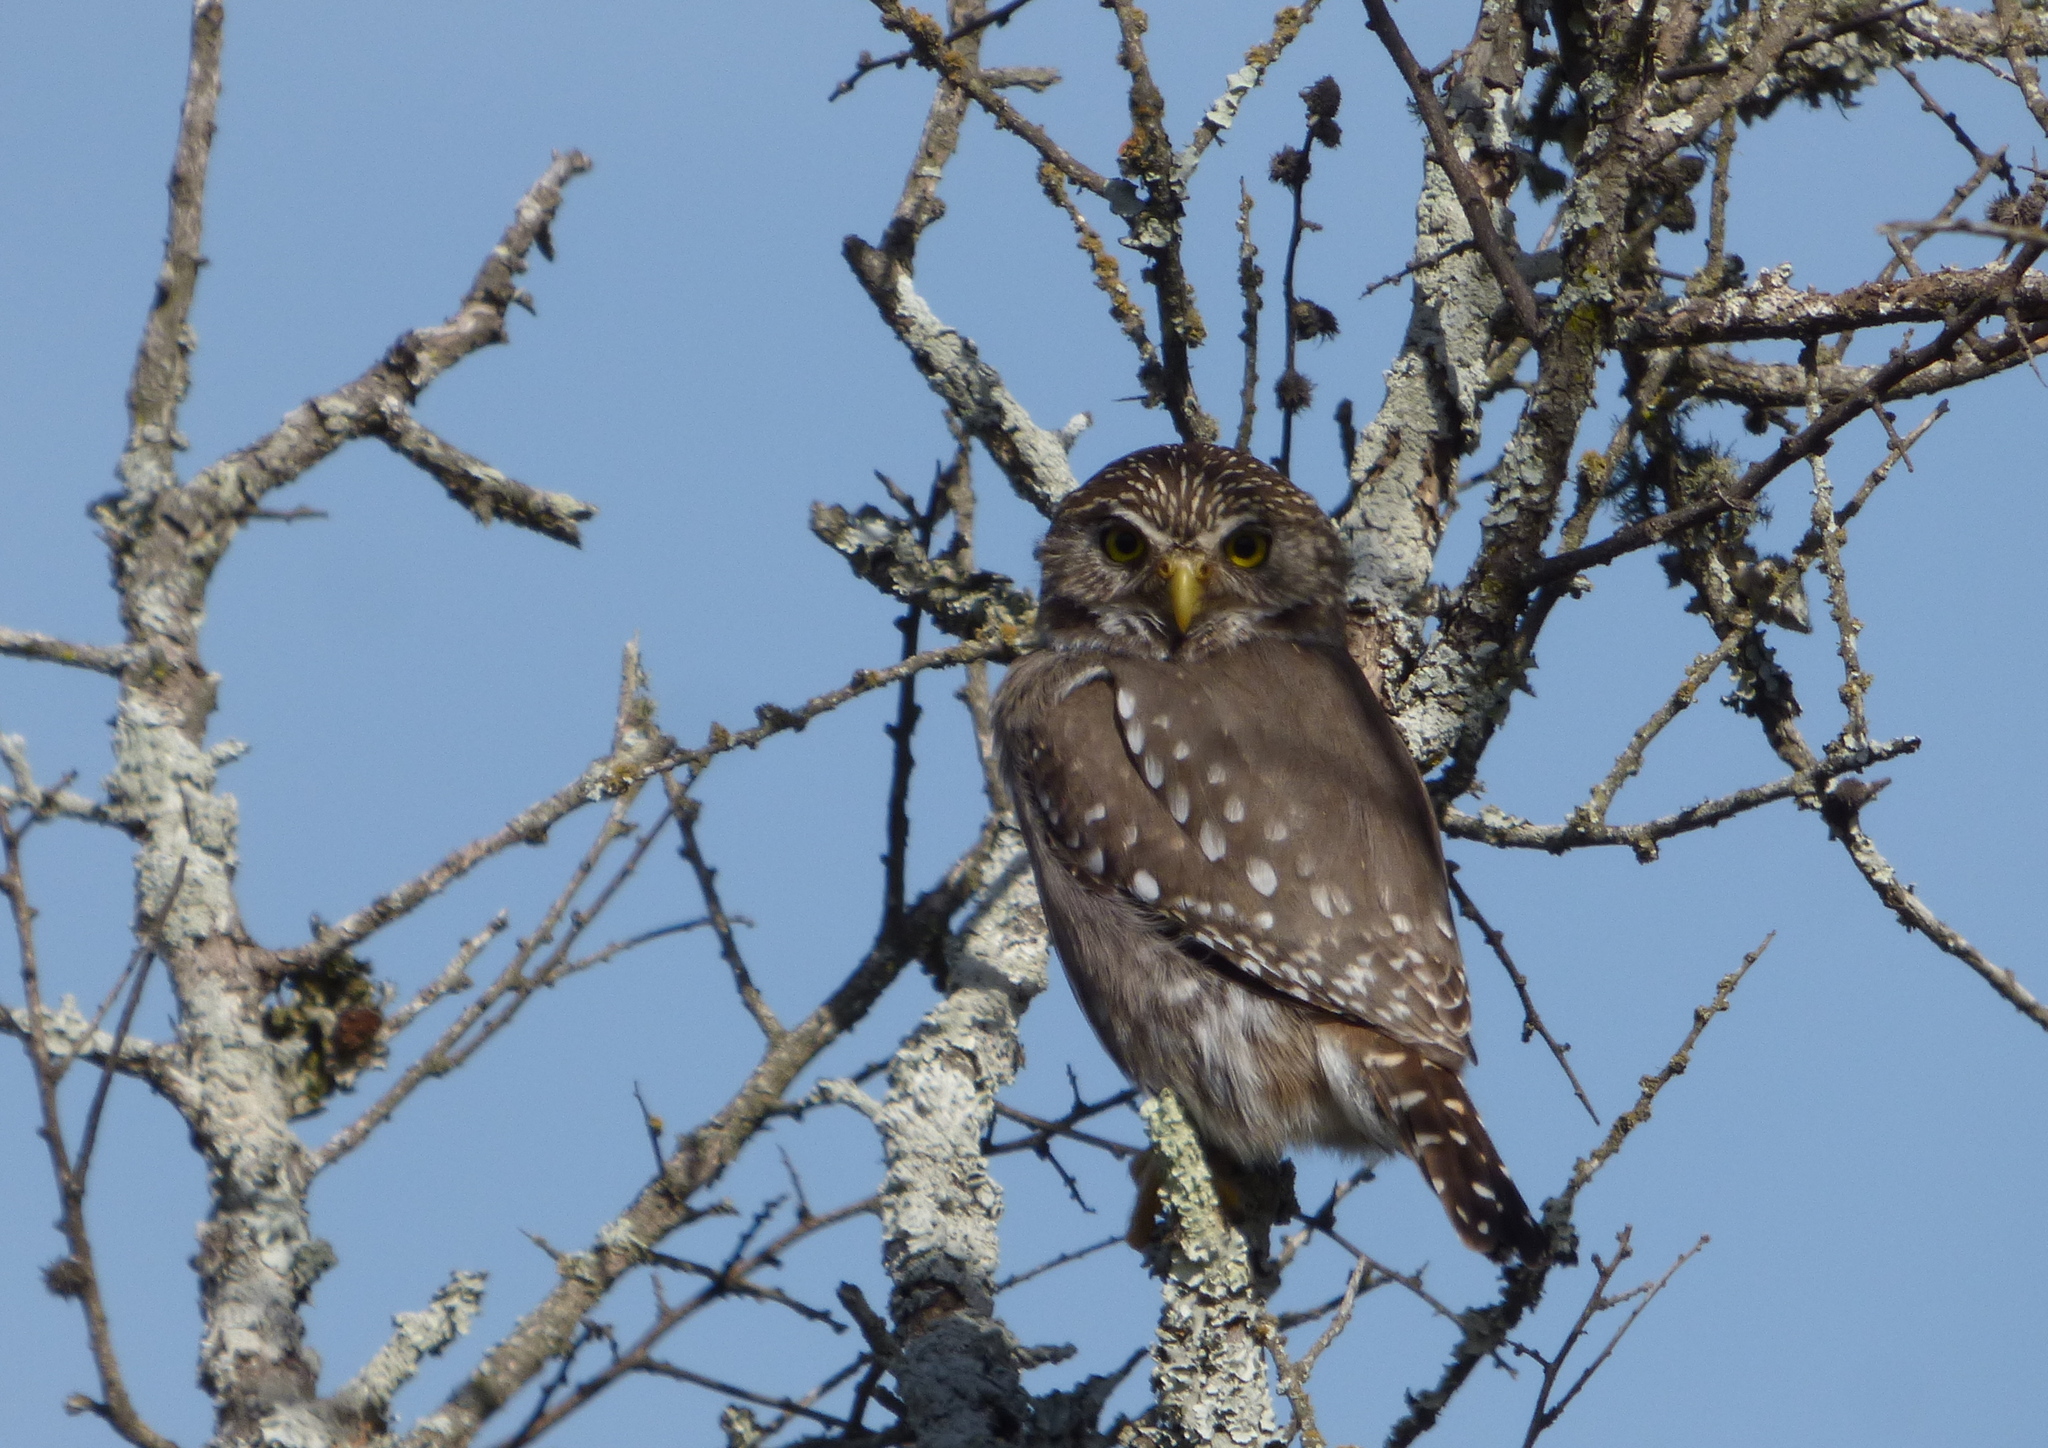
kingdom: Animalia
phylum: Chordata
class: Aves
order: Strigiformes
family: Strigidae
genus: Glaucidium
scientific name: Glaucidium brasilianum
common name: Ferruginous pygmy-owl
